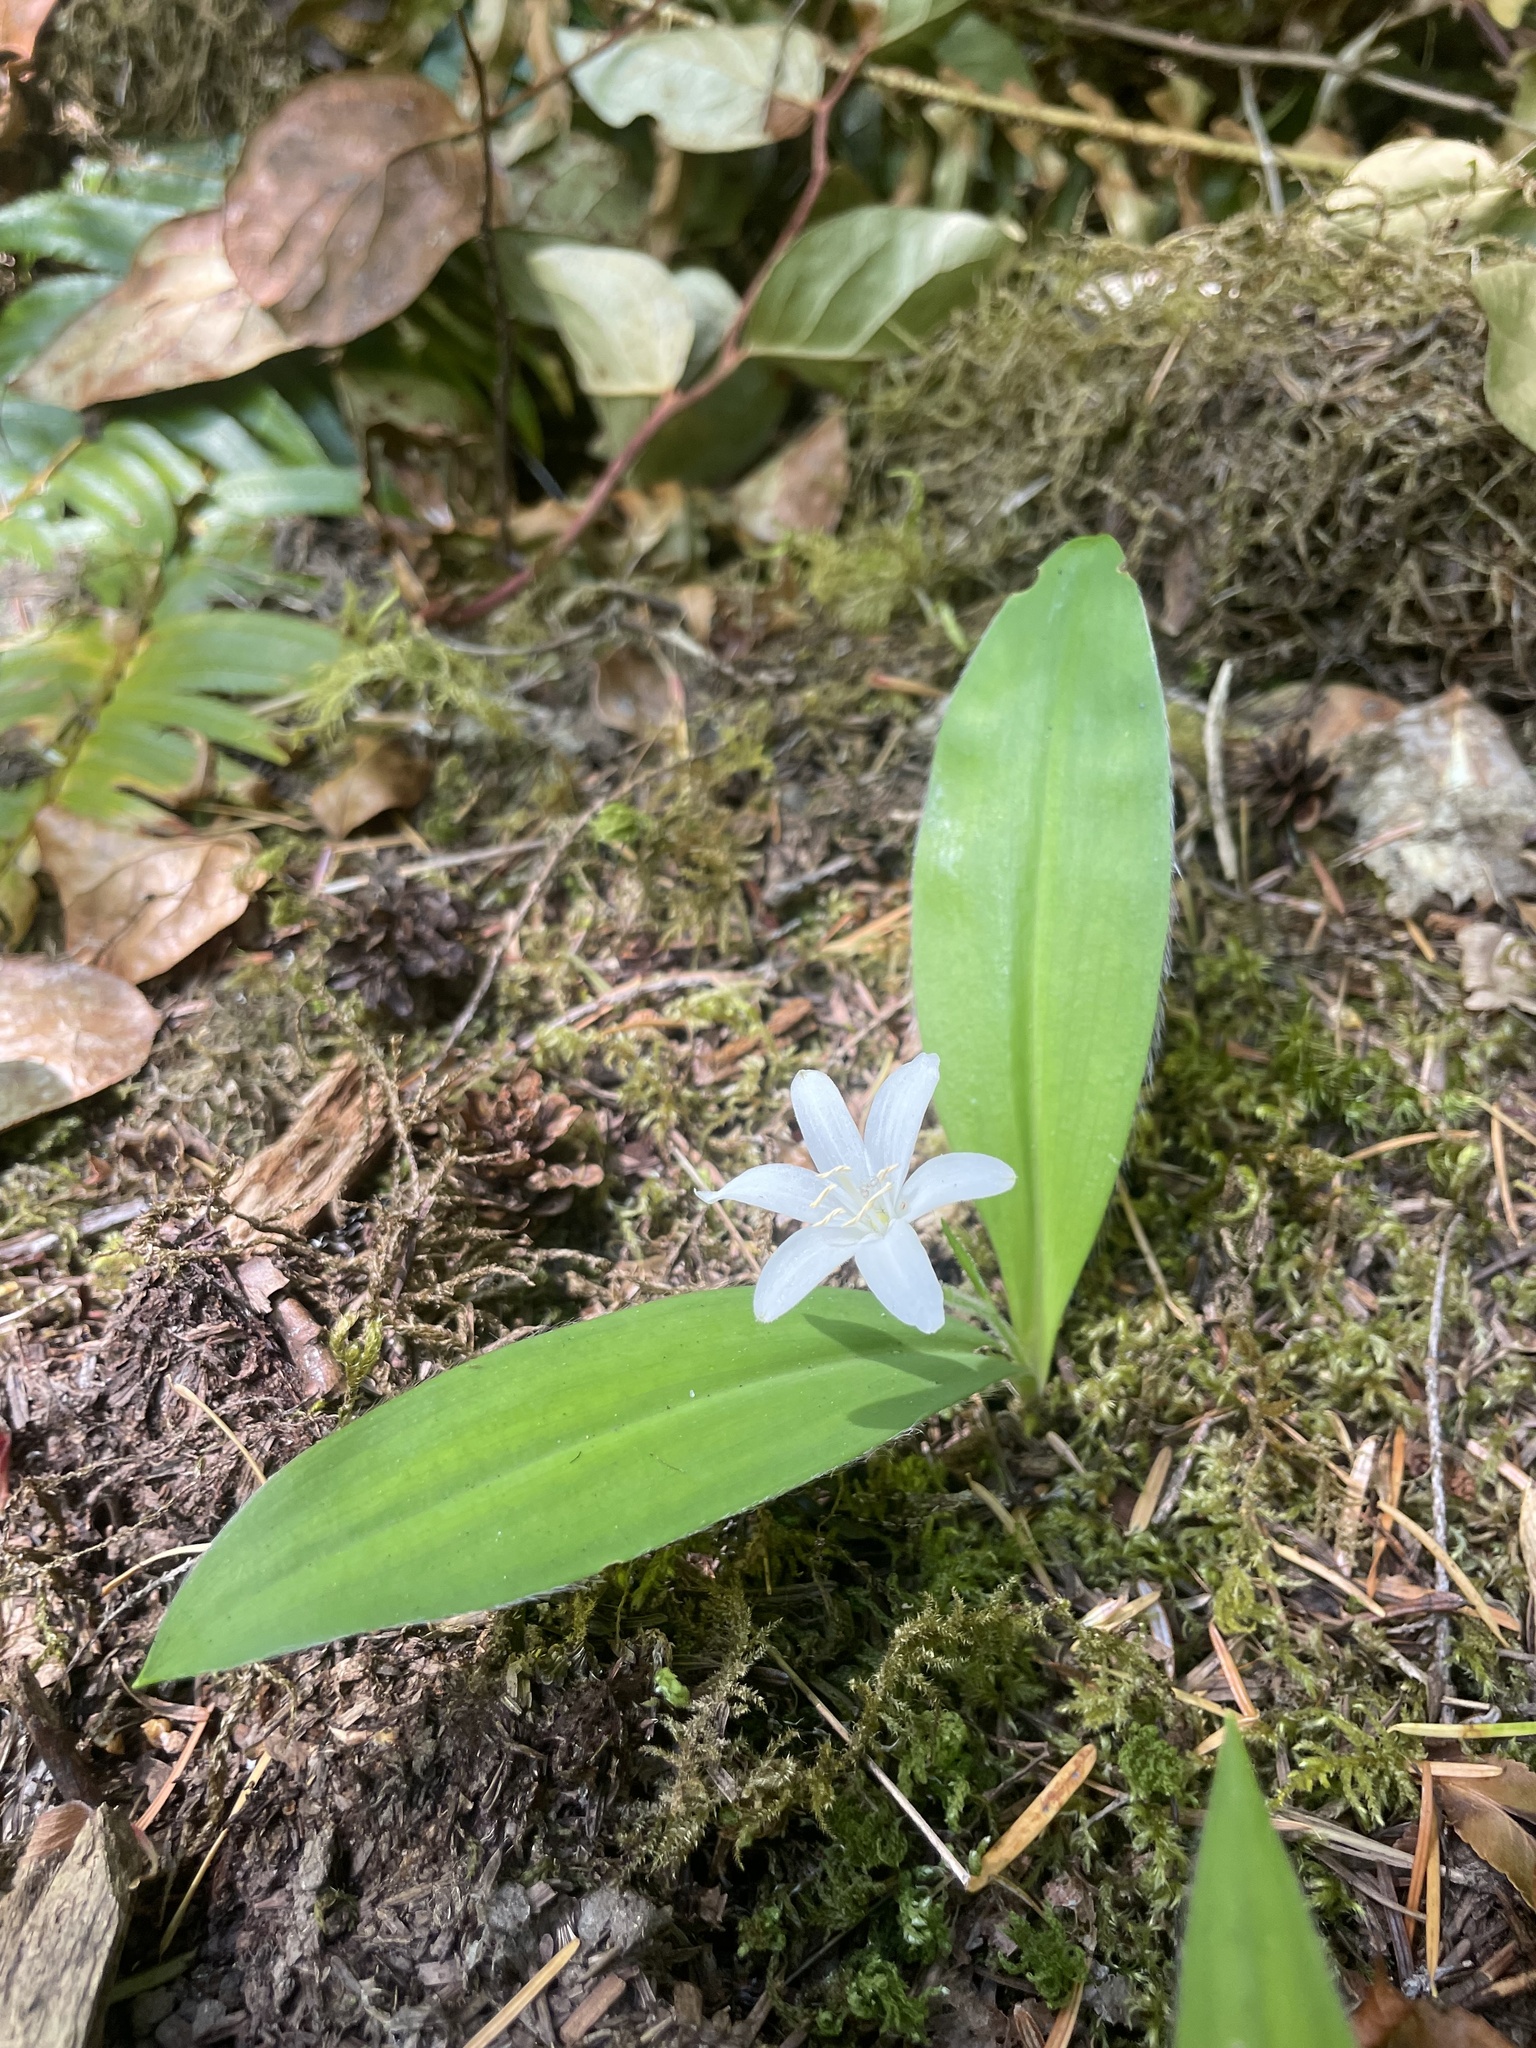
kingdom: Plantae
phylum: Tracheophyta
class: Liliopsida
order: Liliales
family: Liliaceae
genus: Clintonia
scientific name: Clintonia uniflora
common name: Queen's cup
